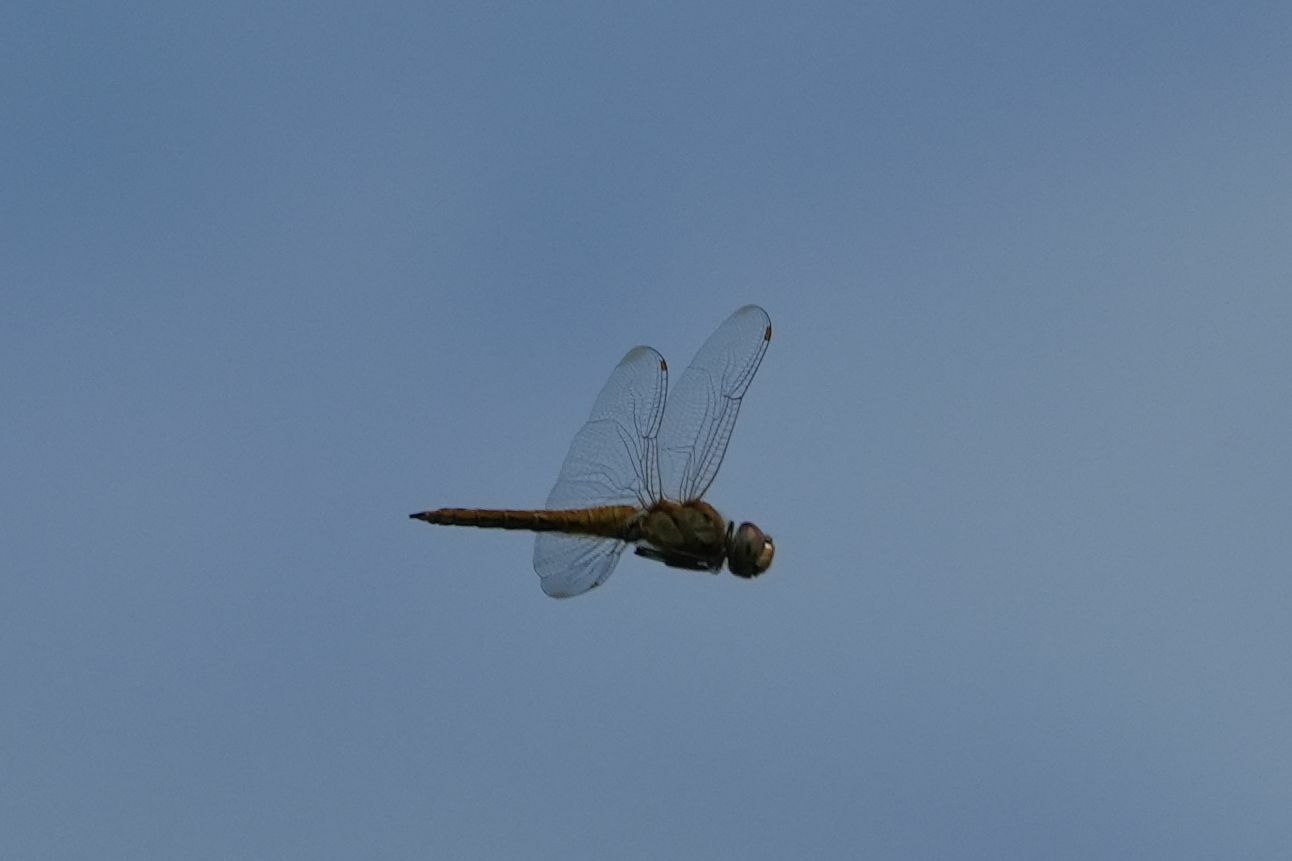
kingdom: Animalia
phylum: Arthropoda
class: Insecta
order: Odonata
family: Libellulidae
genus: Pantala
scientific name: Pantala flavescens
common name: Wandering glider
